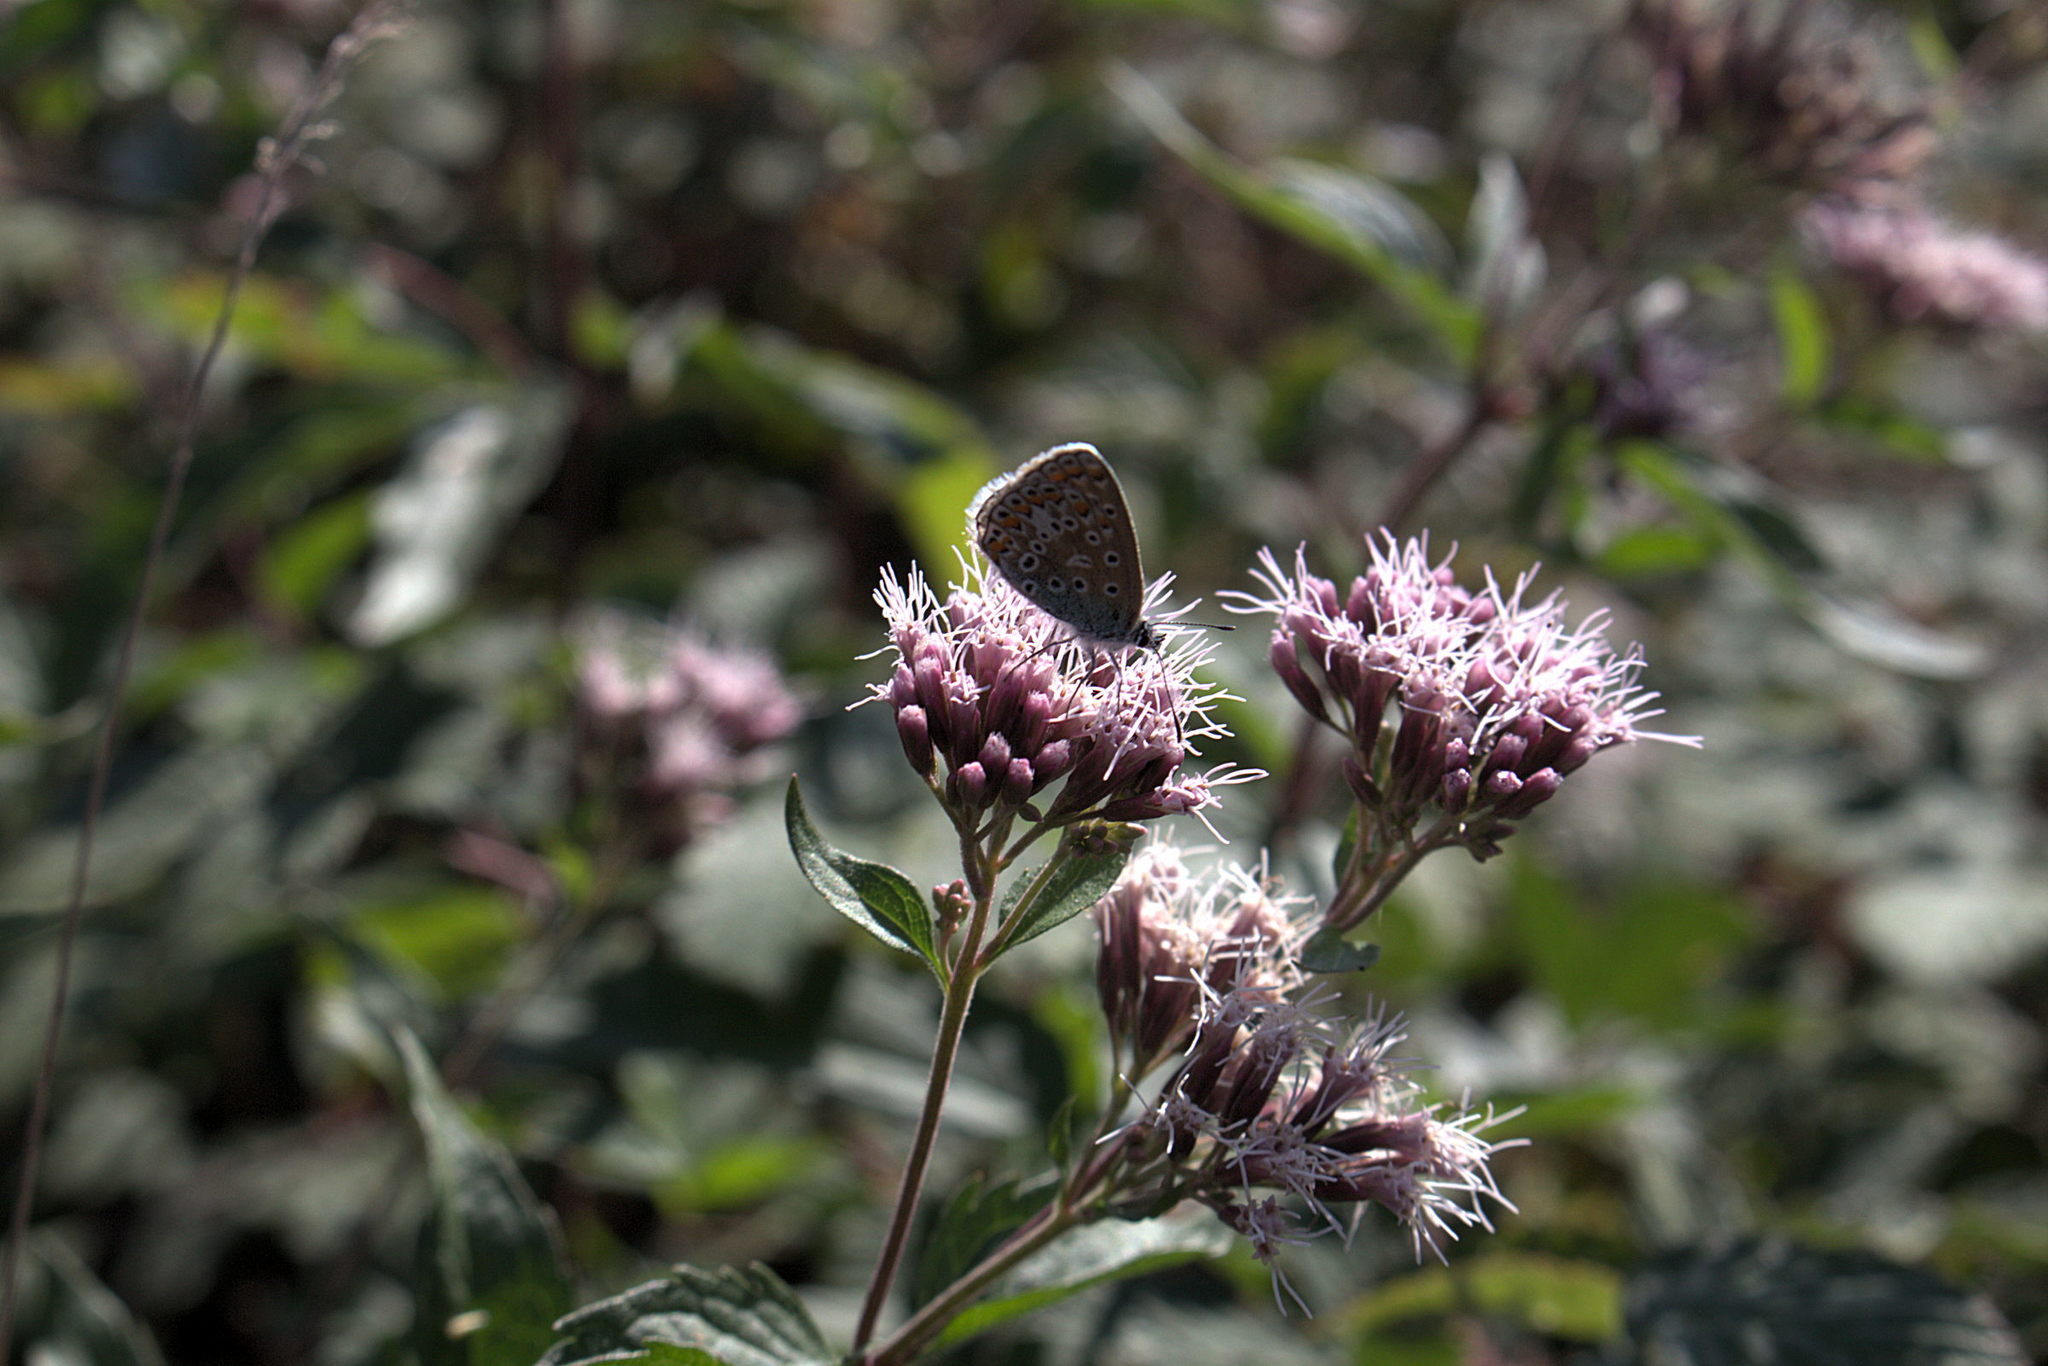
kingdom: Animalia
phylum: Arthropoda
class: Insecta
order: Lepidoptera
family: Lycaenidae
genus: Polyommatus
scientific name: Polyommatus icarus
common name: Common blue
